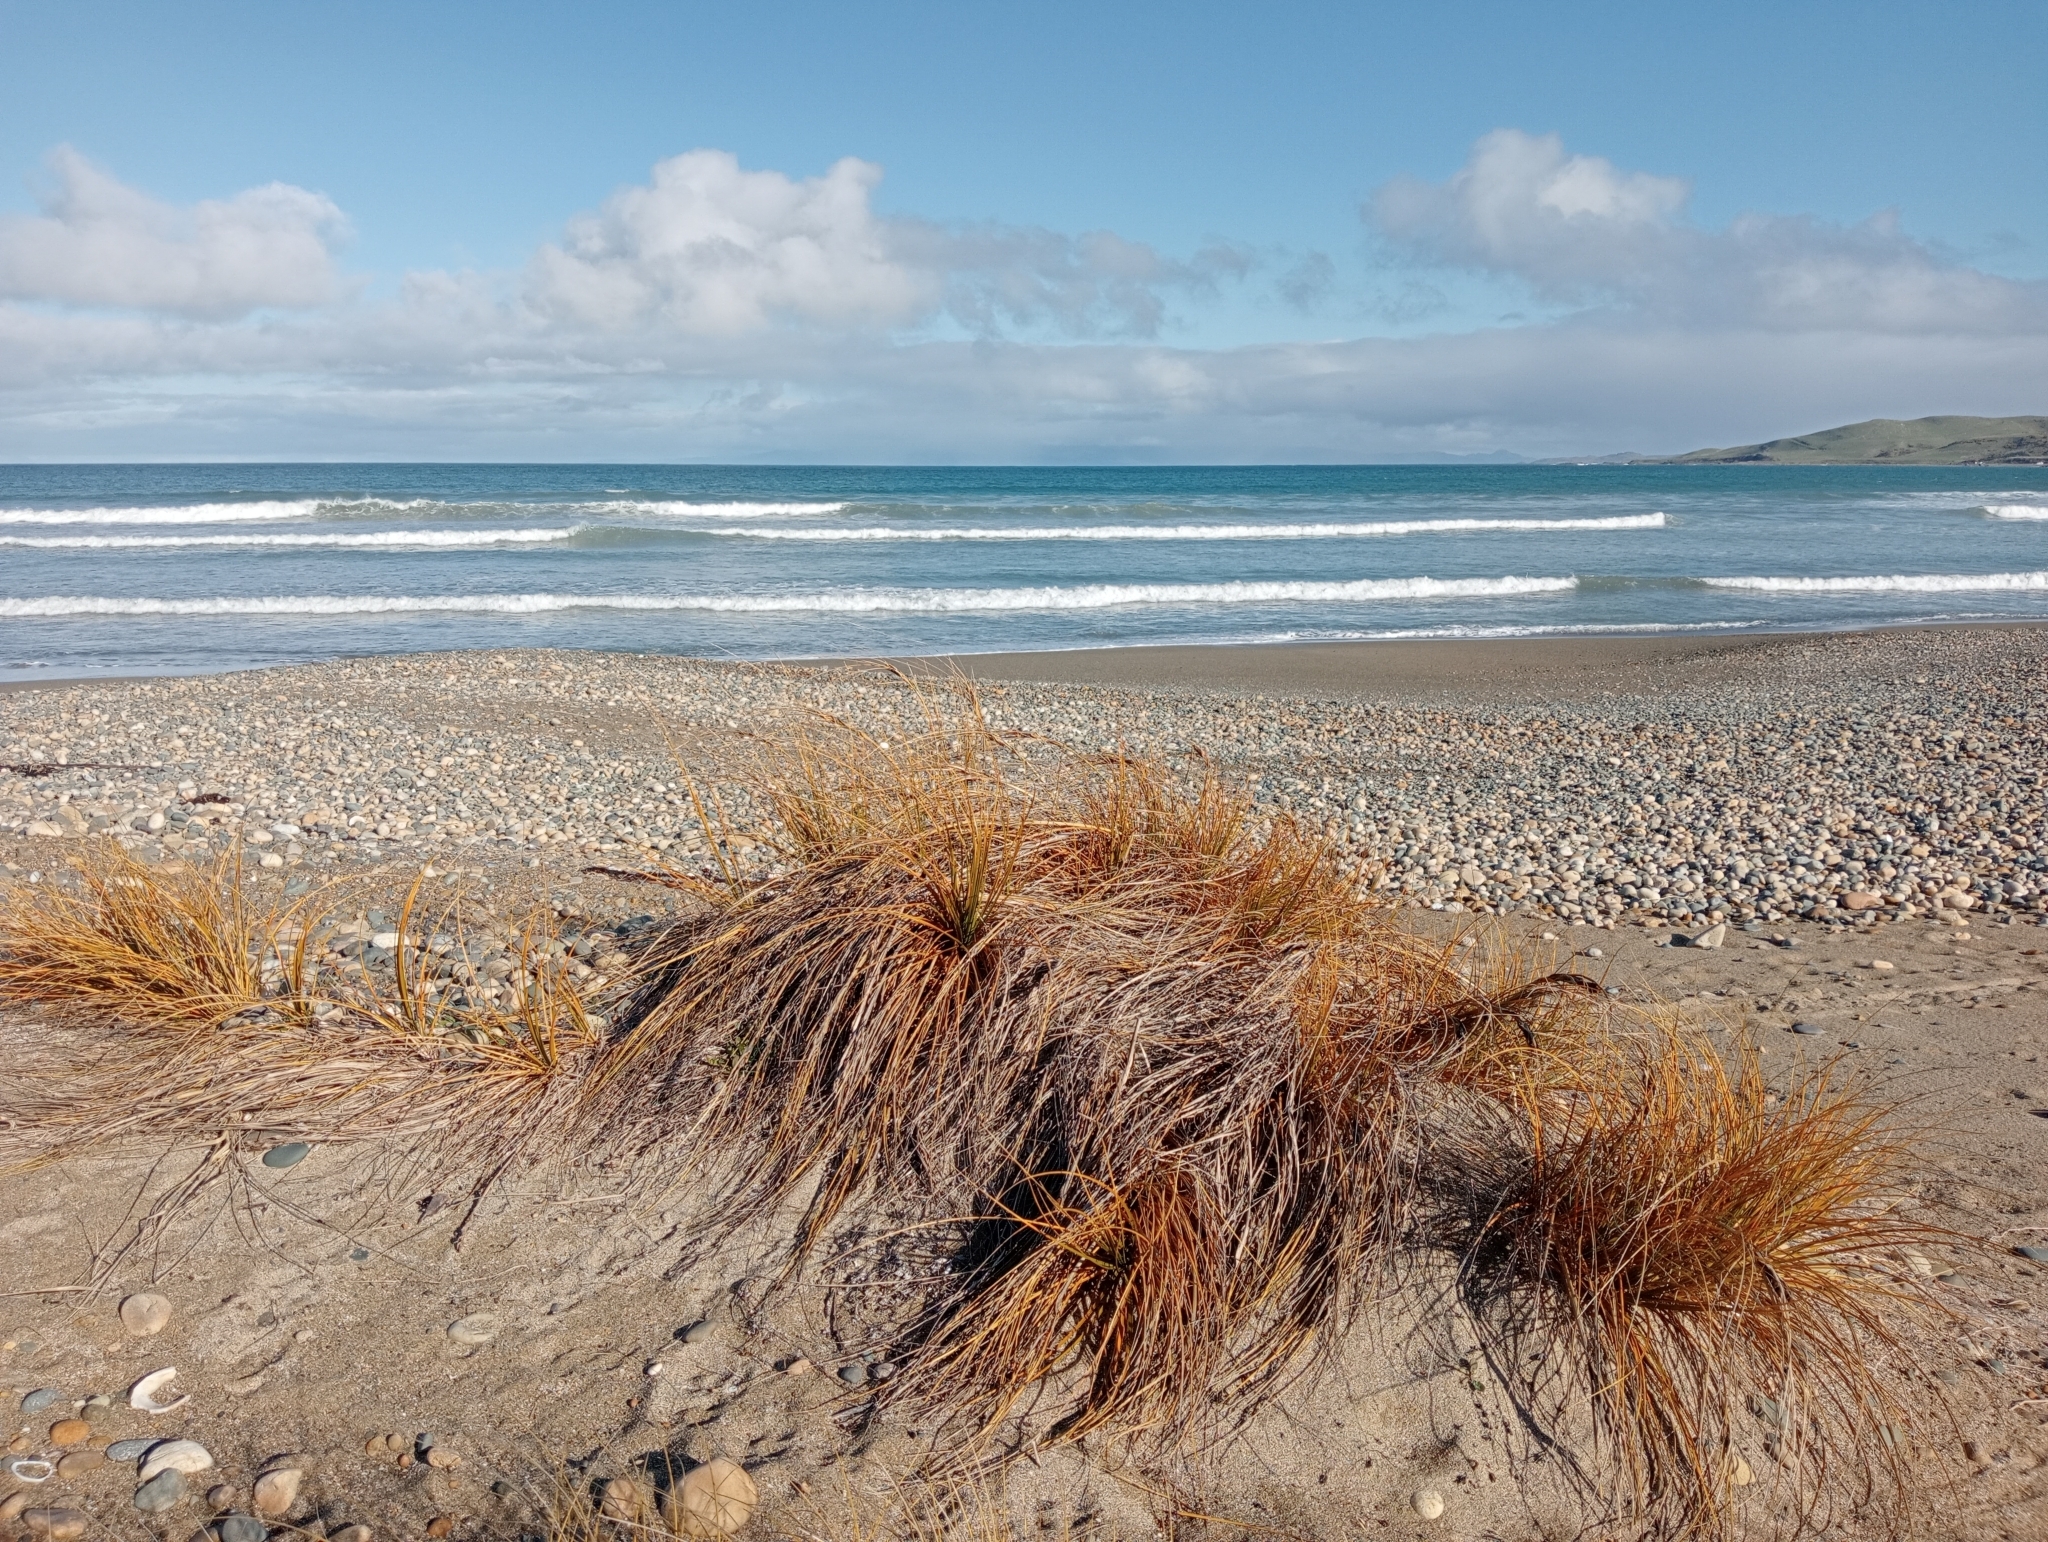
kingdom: Plantae
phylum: Tracheophyta
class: Liliopsida
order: Poales
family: Cyperaceae
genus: Ficinia
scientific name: Ficinia spiralis
